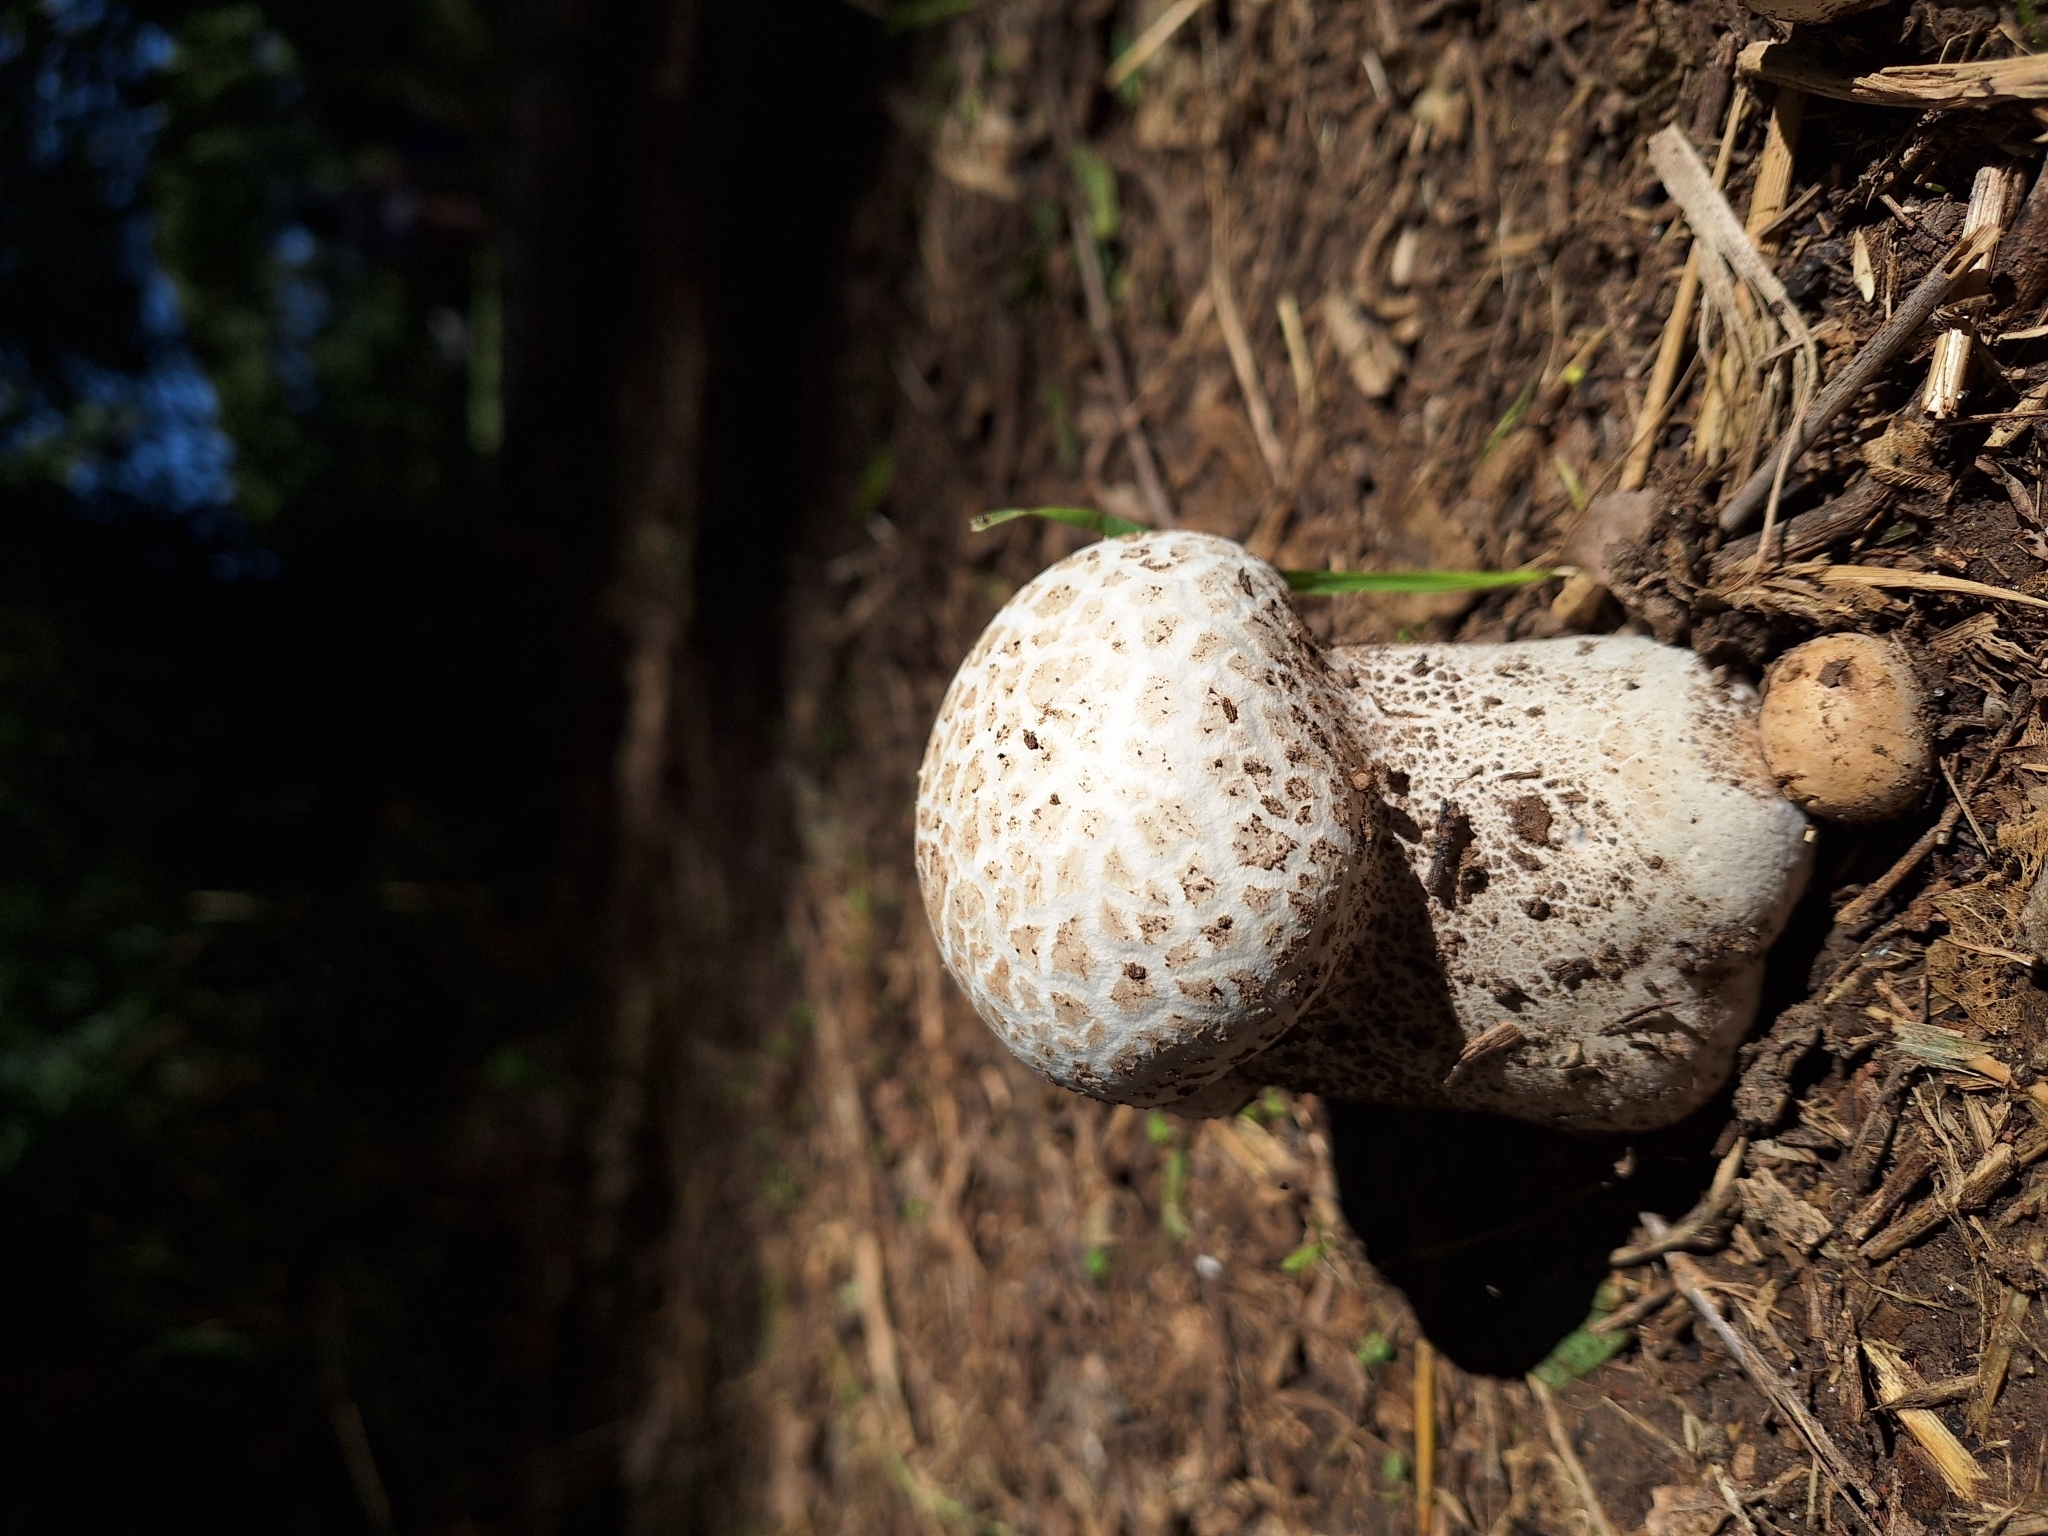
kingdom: Fungi
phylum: Basidiomycota
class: Agaricomycetes
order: Agaricales
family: Lycoperdaceae
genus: Calvatia
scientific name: Calvatia cyathiformis
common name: Purple-spored puffball
